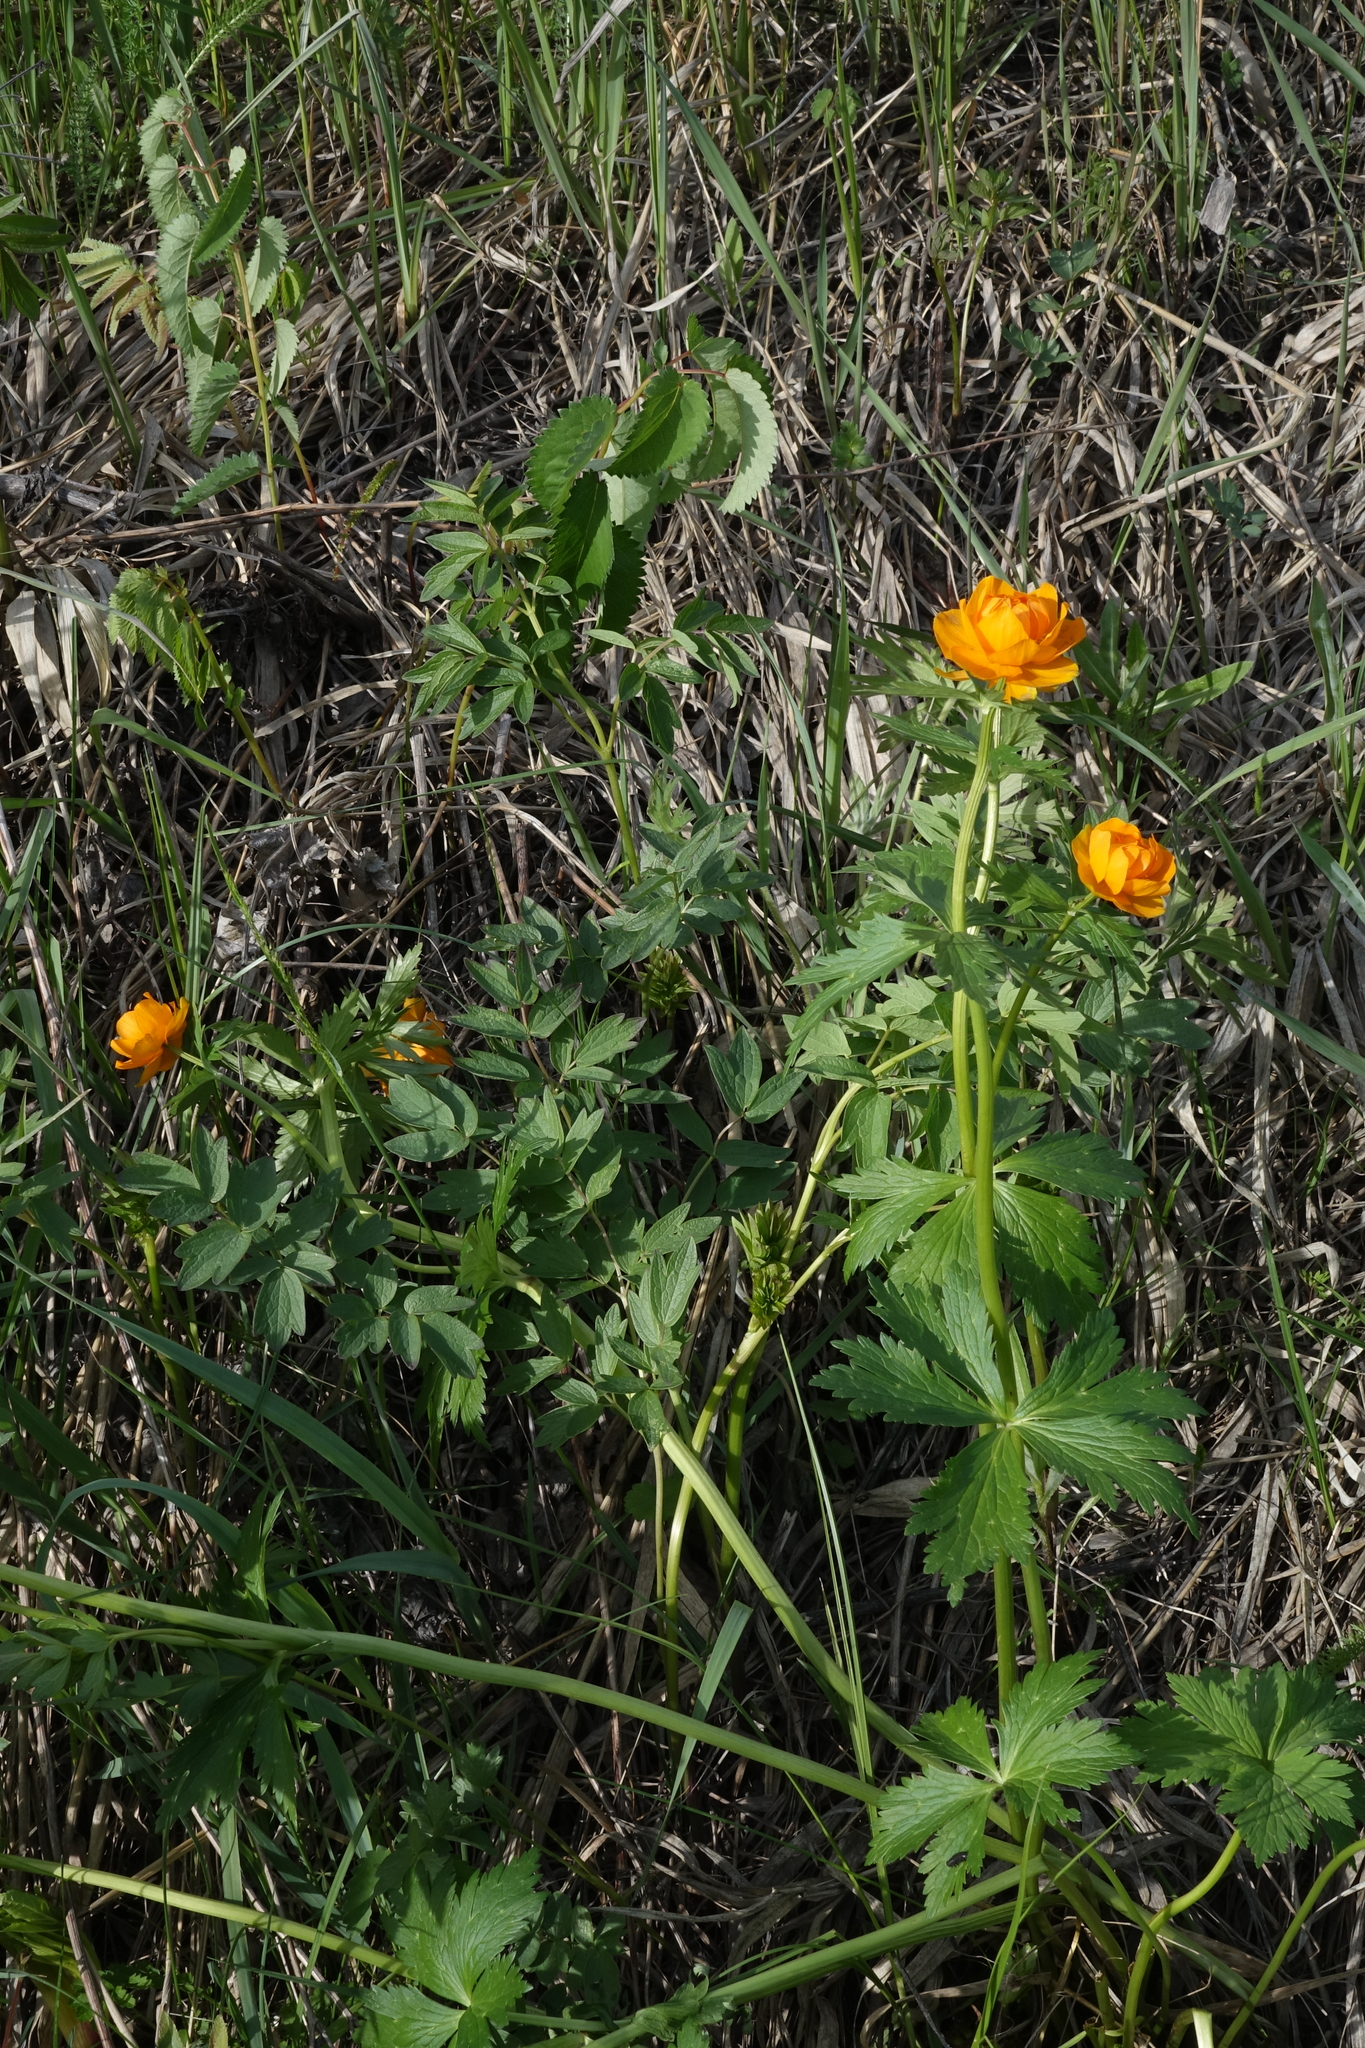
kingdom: Plantae
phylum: Tracheophyta
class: Magnoliopsida
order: Ranunculales
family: Ranunculaceae
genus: Trollius
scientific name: Trollius asiaticus
